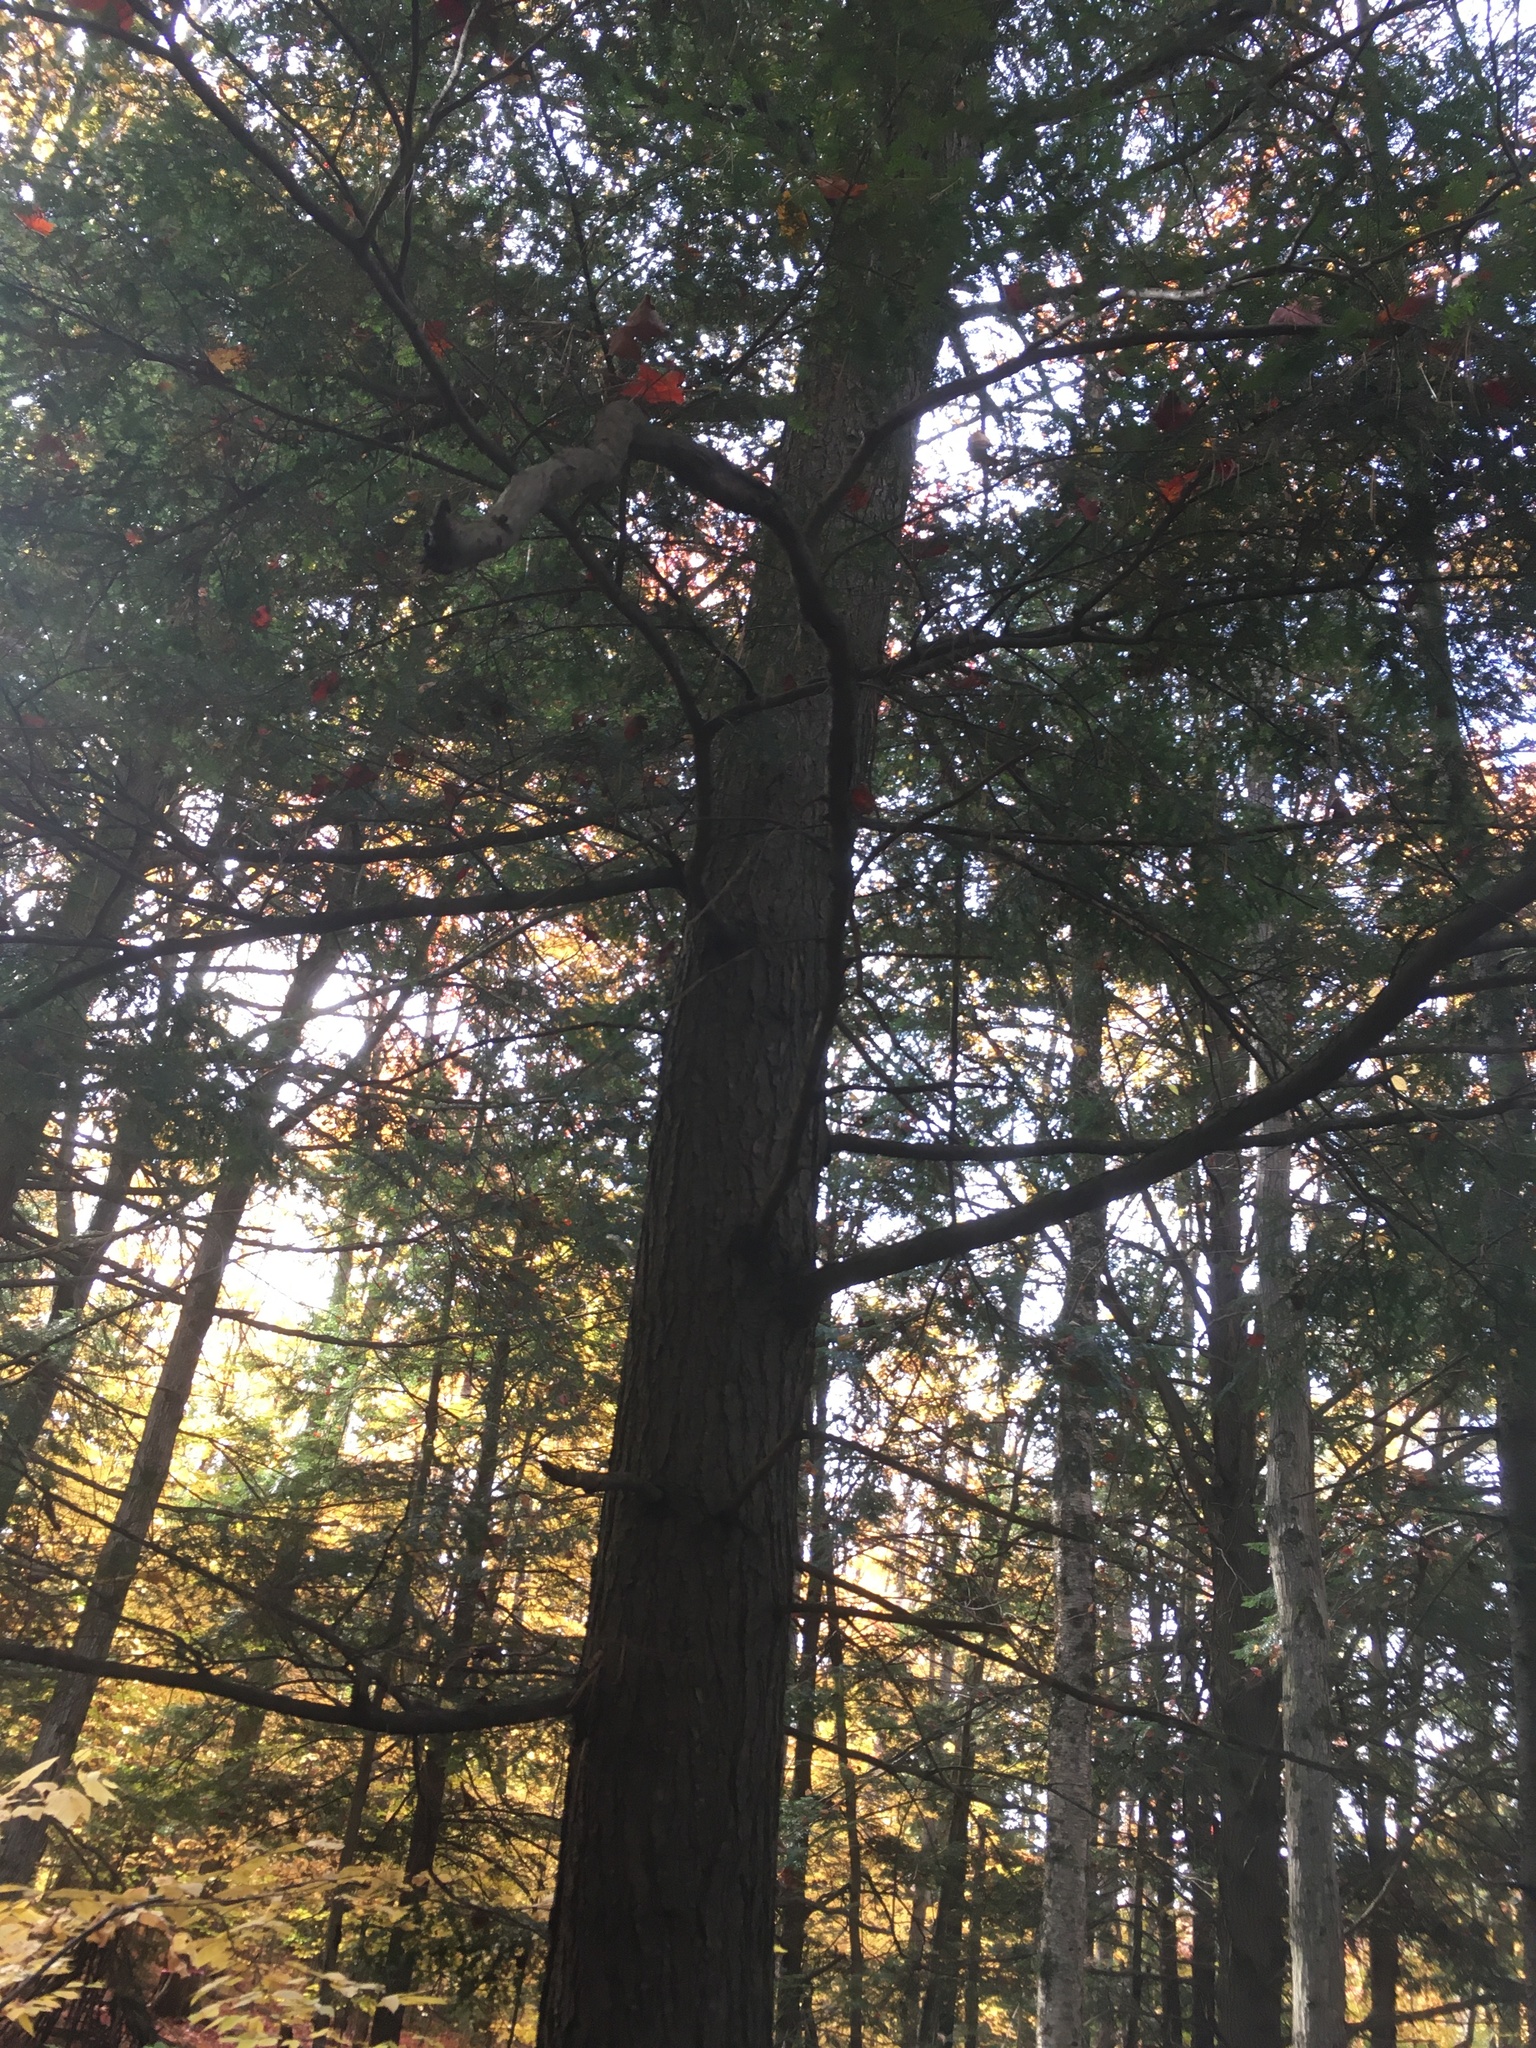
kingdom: Plantae
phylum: Tracheophyta
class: Pinopsida
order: Pinales
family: Pinaceae
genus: Tsuga
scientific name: Tsuga canadensis
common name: Eastern hemlock
